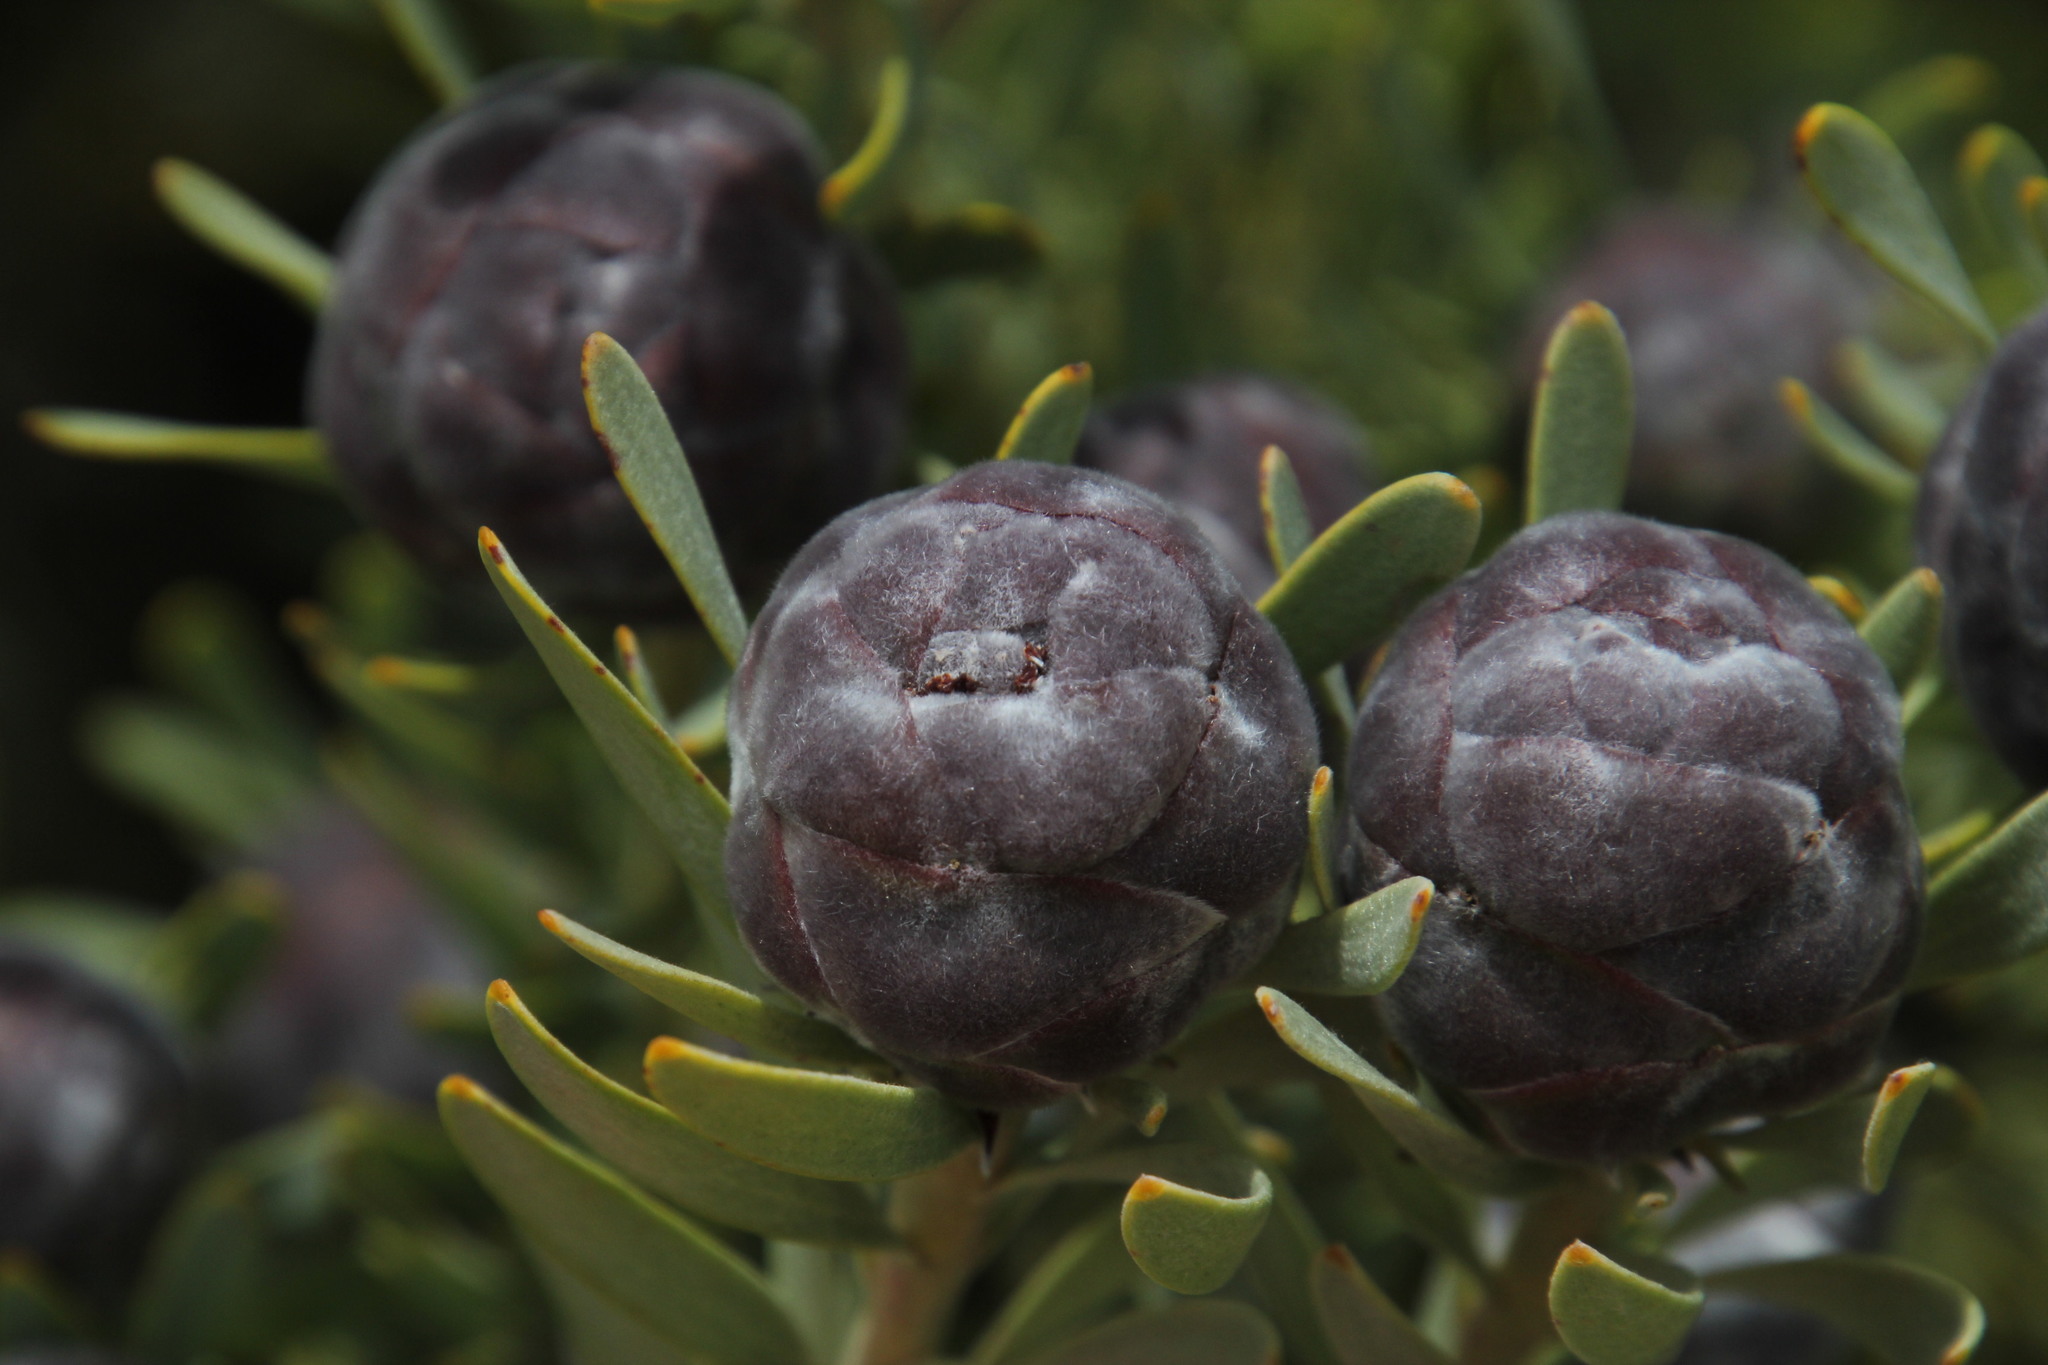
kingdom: Plantae
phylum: Tracheophyta
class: Magnoliopsida
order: Proteales
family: Proteaceae
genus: Leucadendron
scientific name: Leucadendron pubescens
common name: Grey conebush
